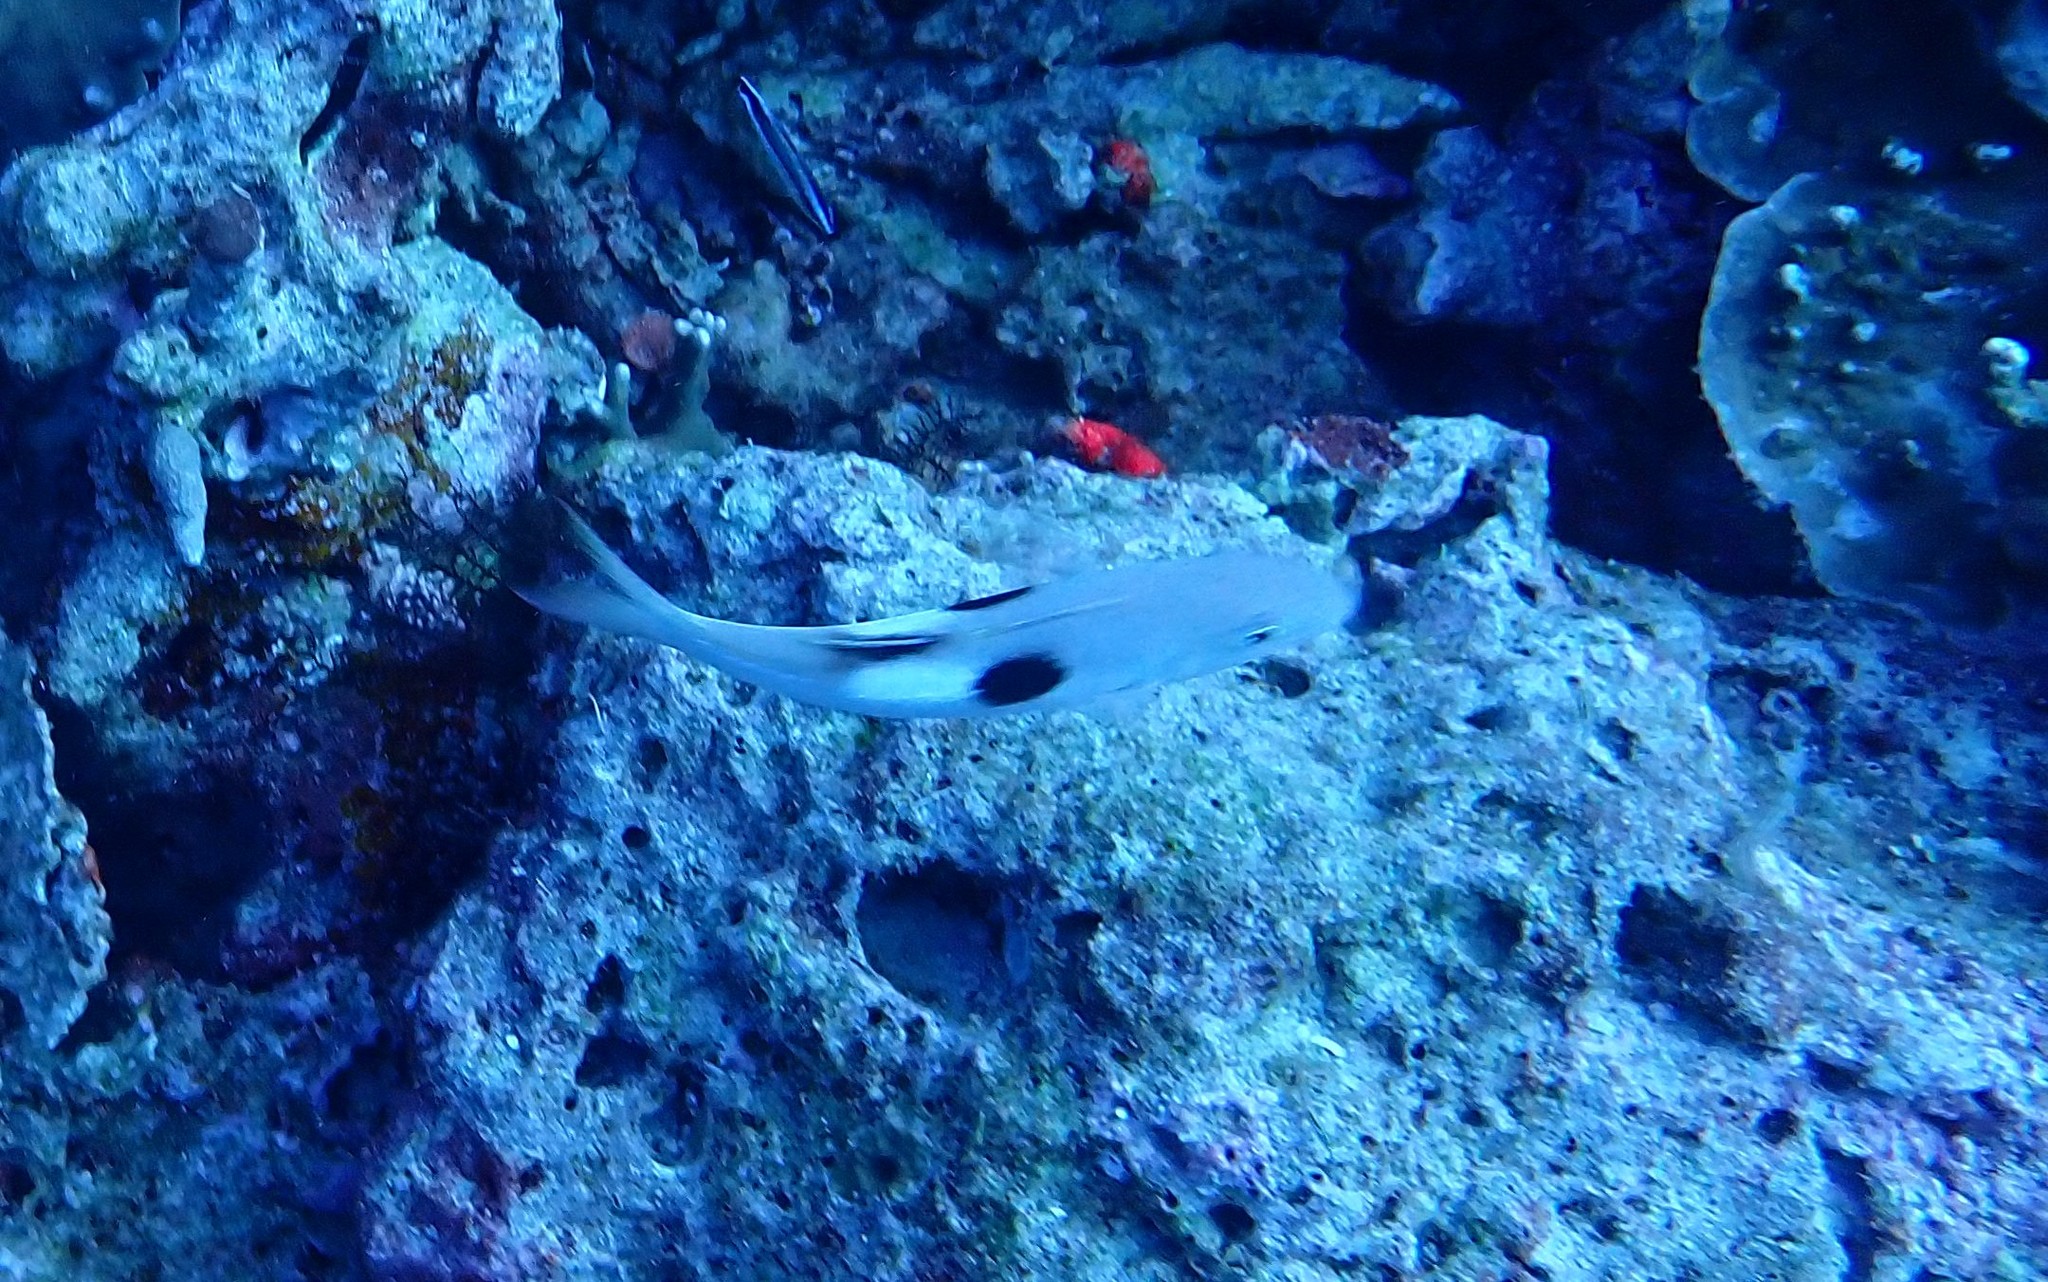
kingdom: Animalia
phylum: Chordata
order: Perciformes
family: Mullidae
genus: Parupeneus
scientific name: Parupeneus pleurostigma
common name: Sidespot goatfish
